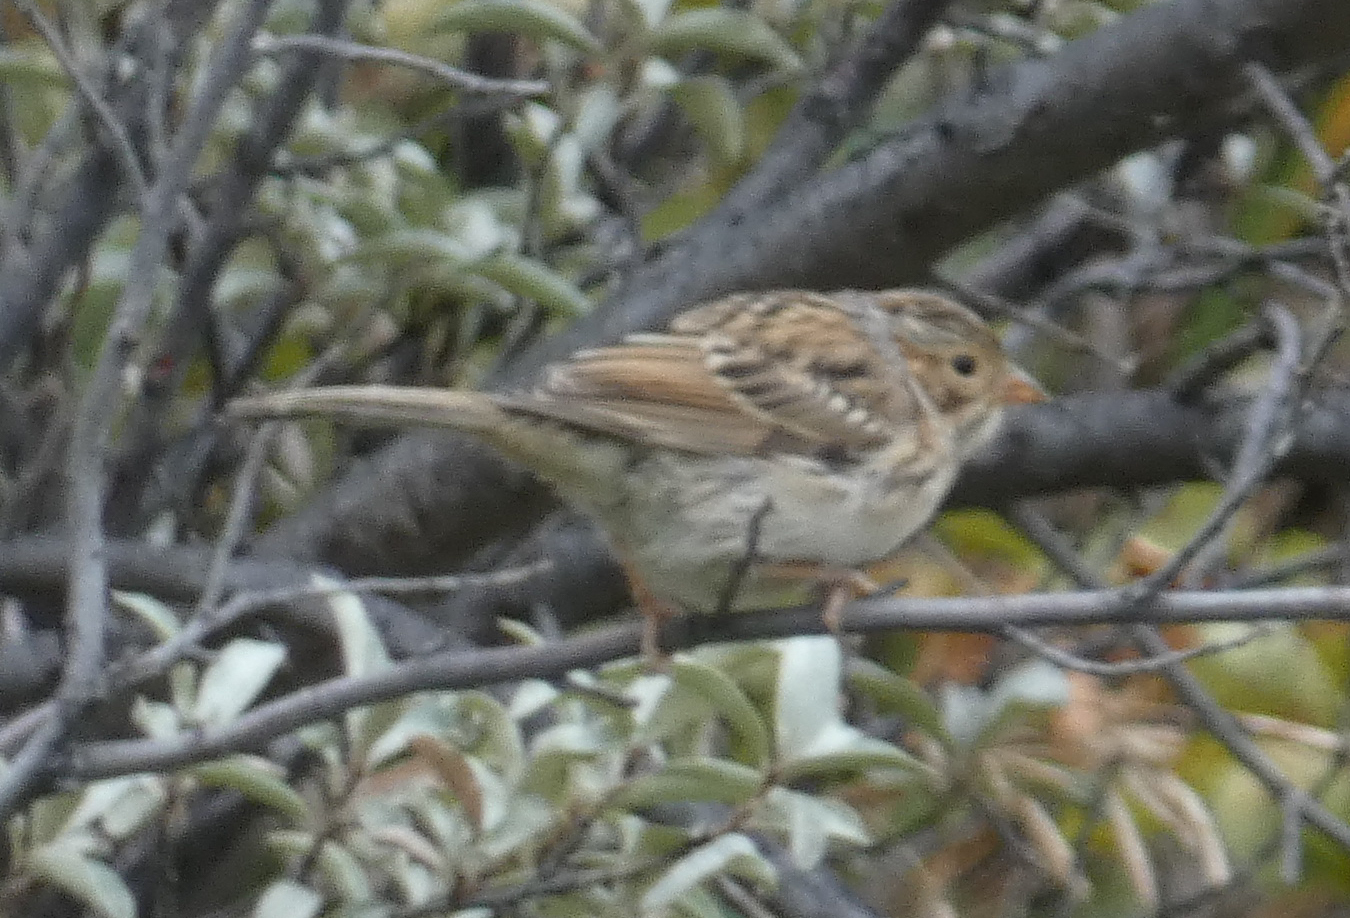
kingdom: Animalia
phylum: Chordata
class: Aves
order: Passeriformes
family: Passerellidae
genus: Spizella
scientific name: Spizella pallida
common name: Clay-colored sparrow
